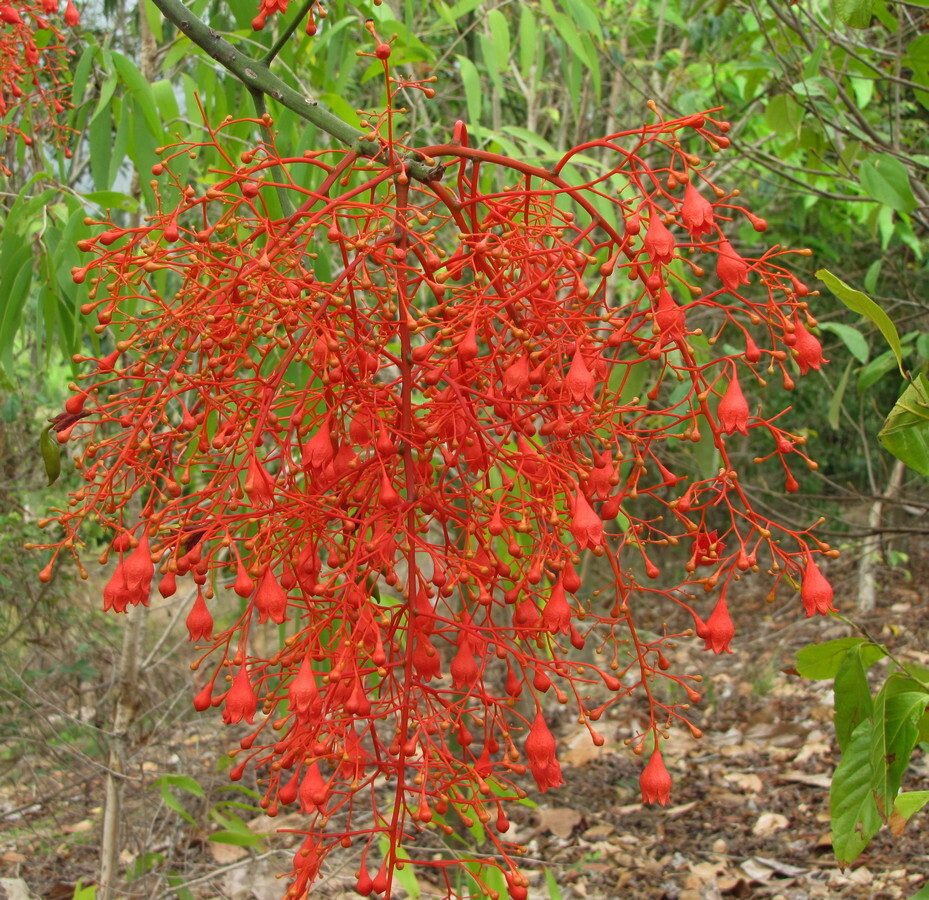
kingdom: Plantae
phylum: Tracheophyta
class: Magnoliopsida
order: Malvales
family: Malvaceae
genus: Brachychiton
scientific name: Brachychiton acerifolius
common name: Illawarra flame tree
